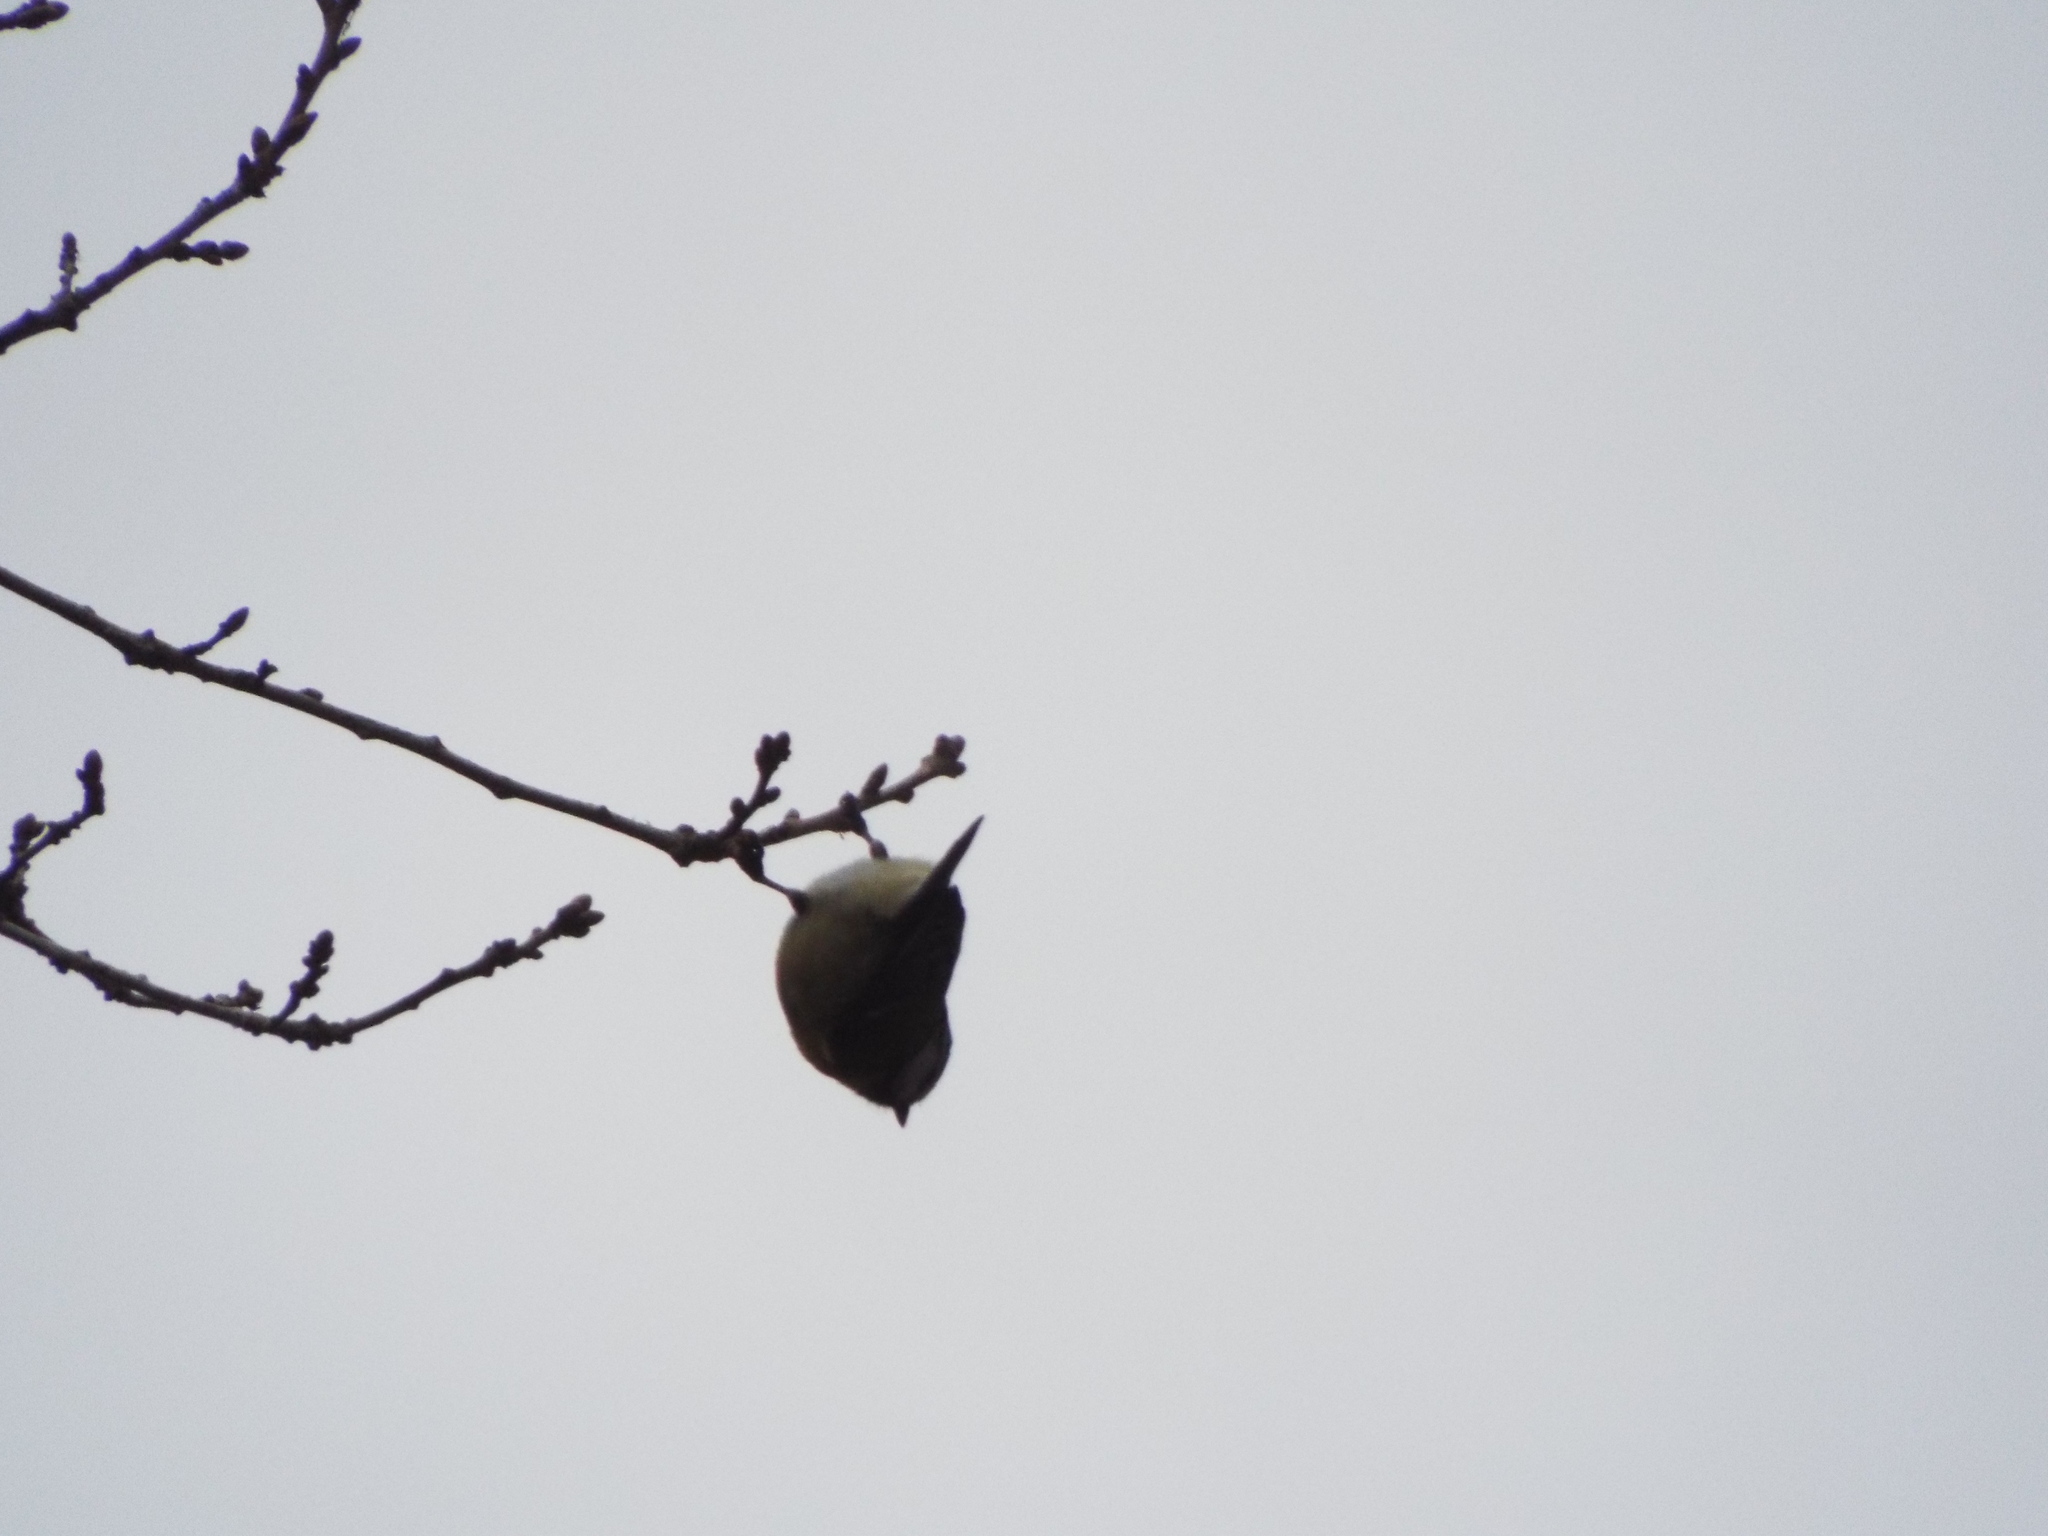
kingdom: Animalia
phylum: Chordata
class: Aves
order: Passeriformes
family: Paridae
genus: Cyanistes
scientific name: Cyanistes caeruleus
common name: Eurasian blue tit
